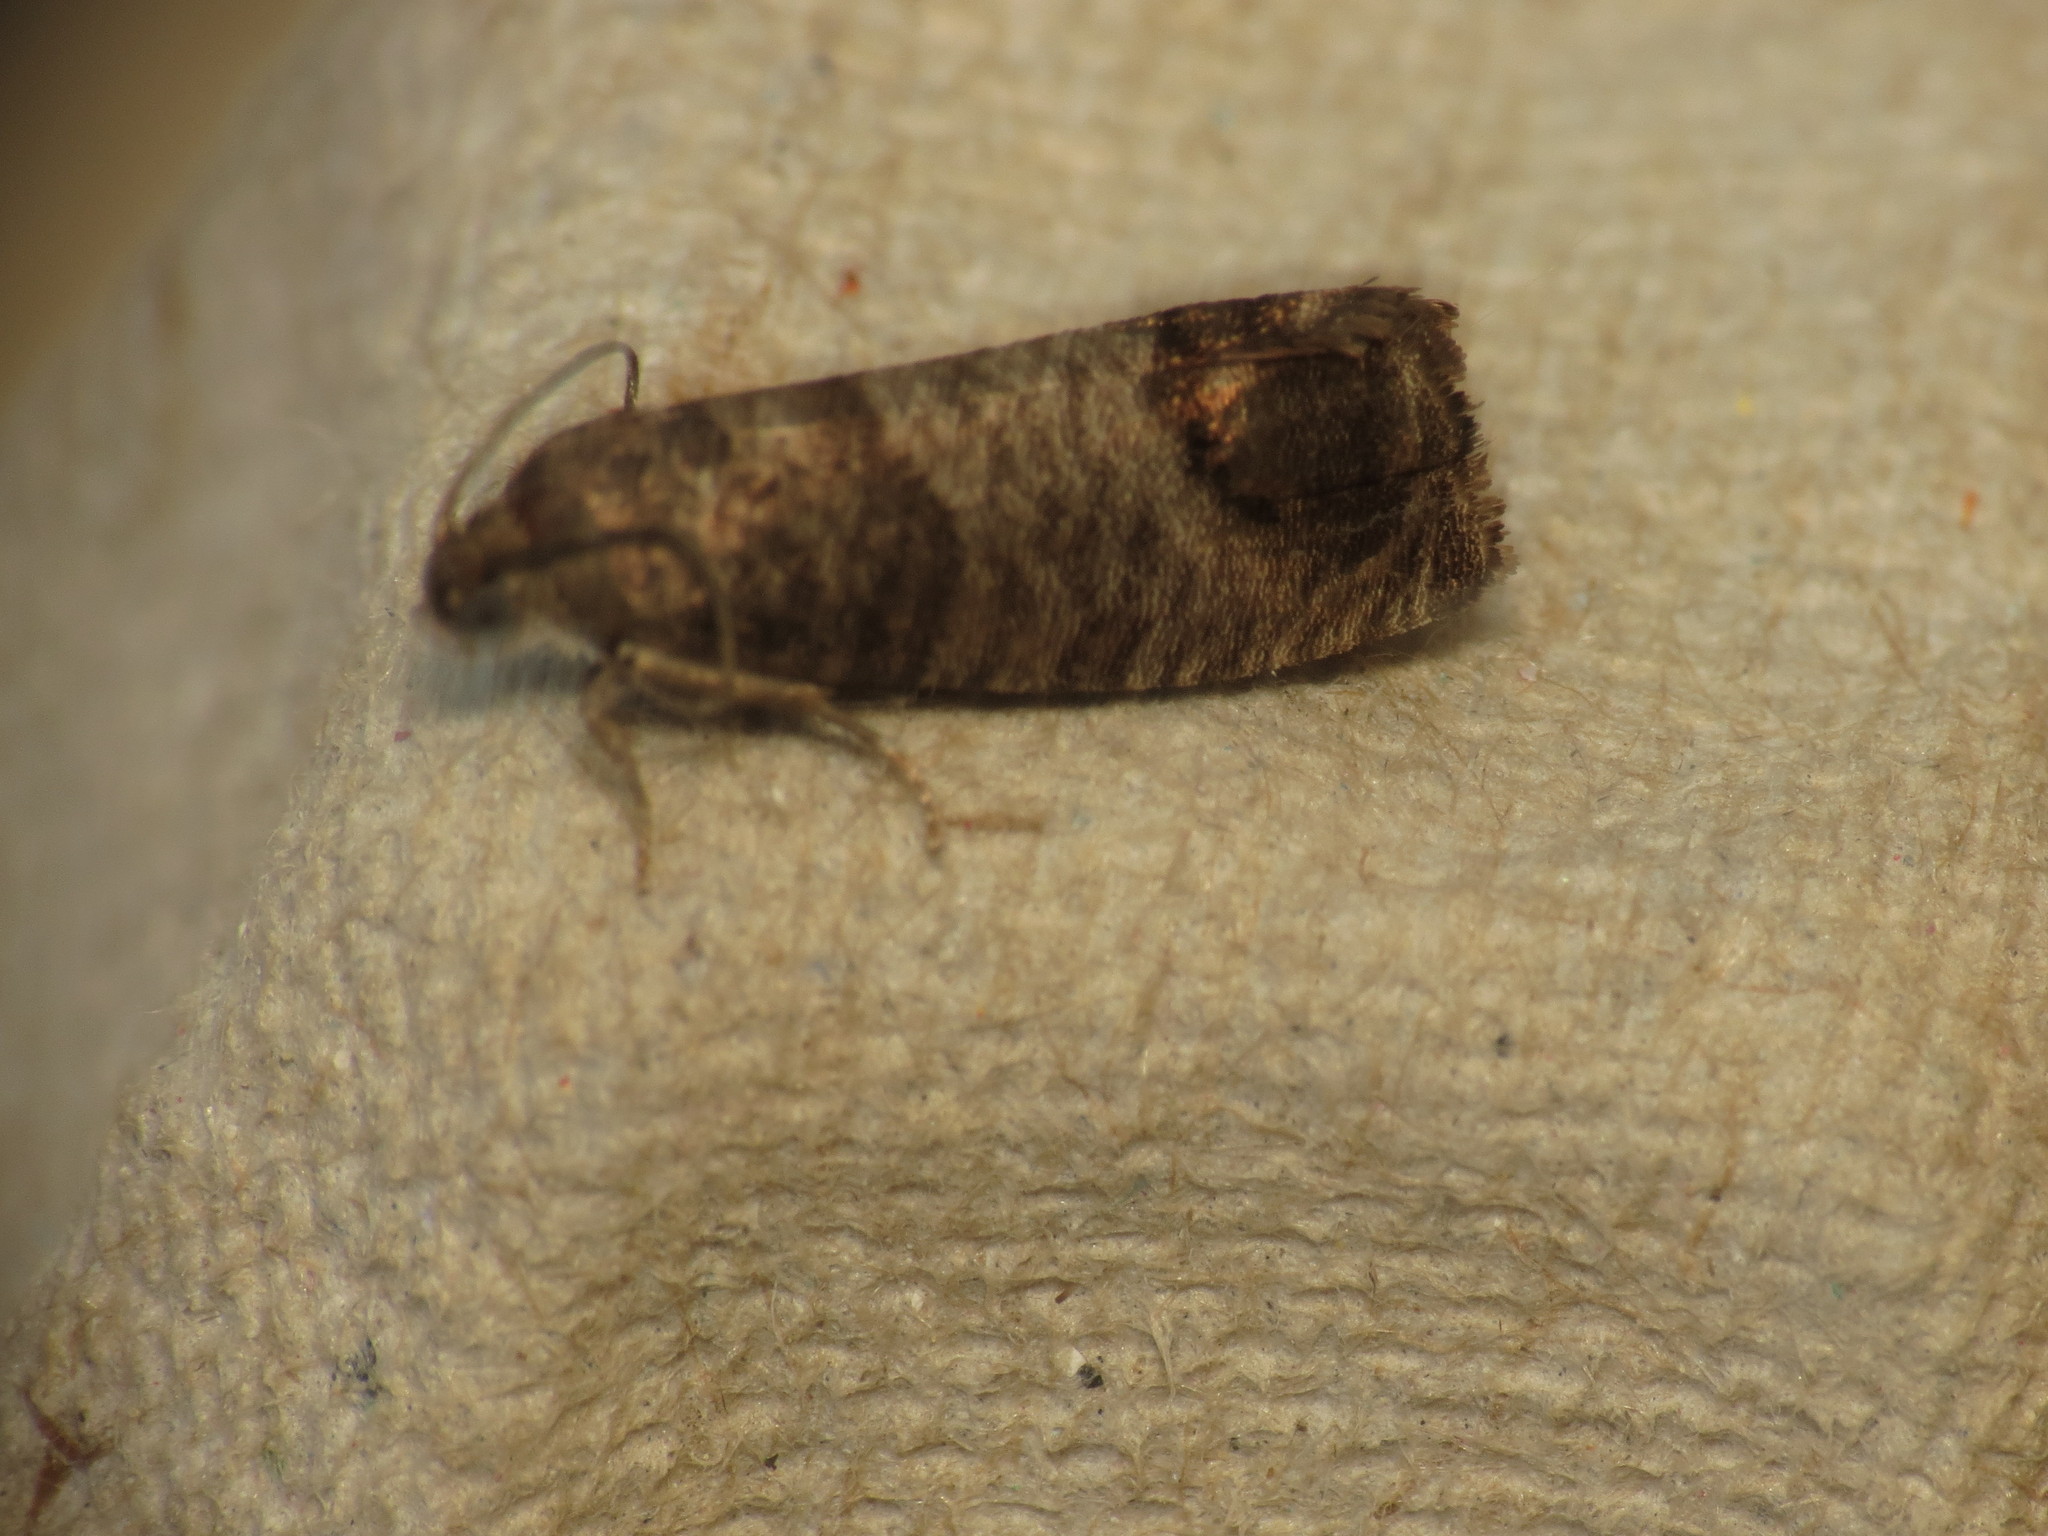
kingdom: Animalia
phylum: Arthropoda
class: Insecta
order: Lepidoptera
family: Tortricidae
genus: Cydia
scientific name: Cydia pomonella
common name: Codling moth
